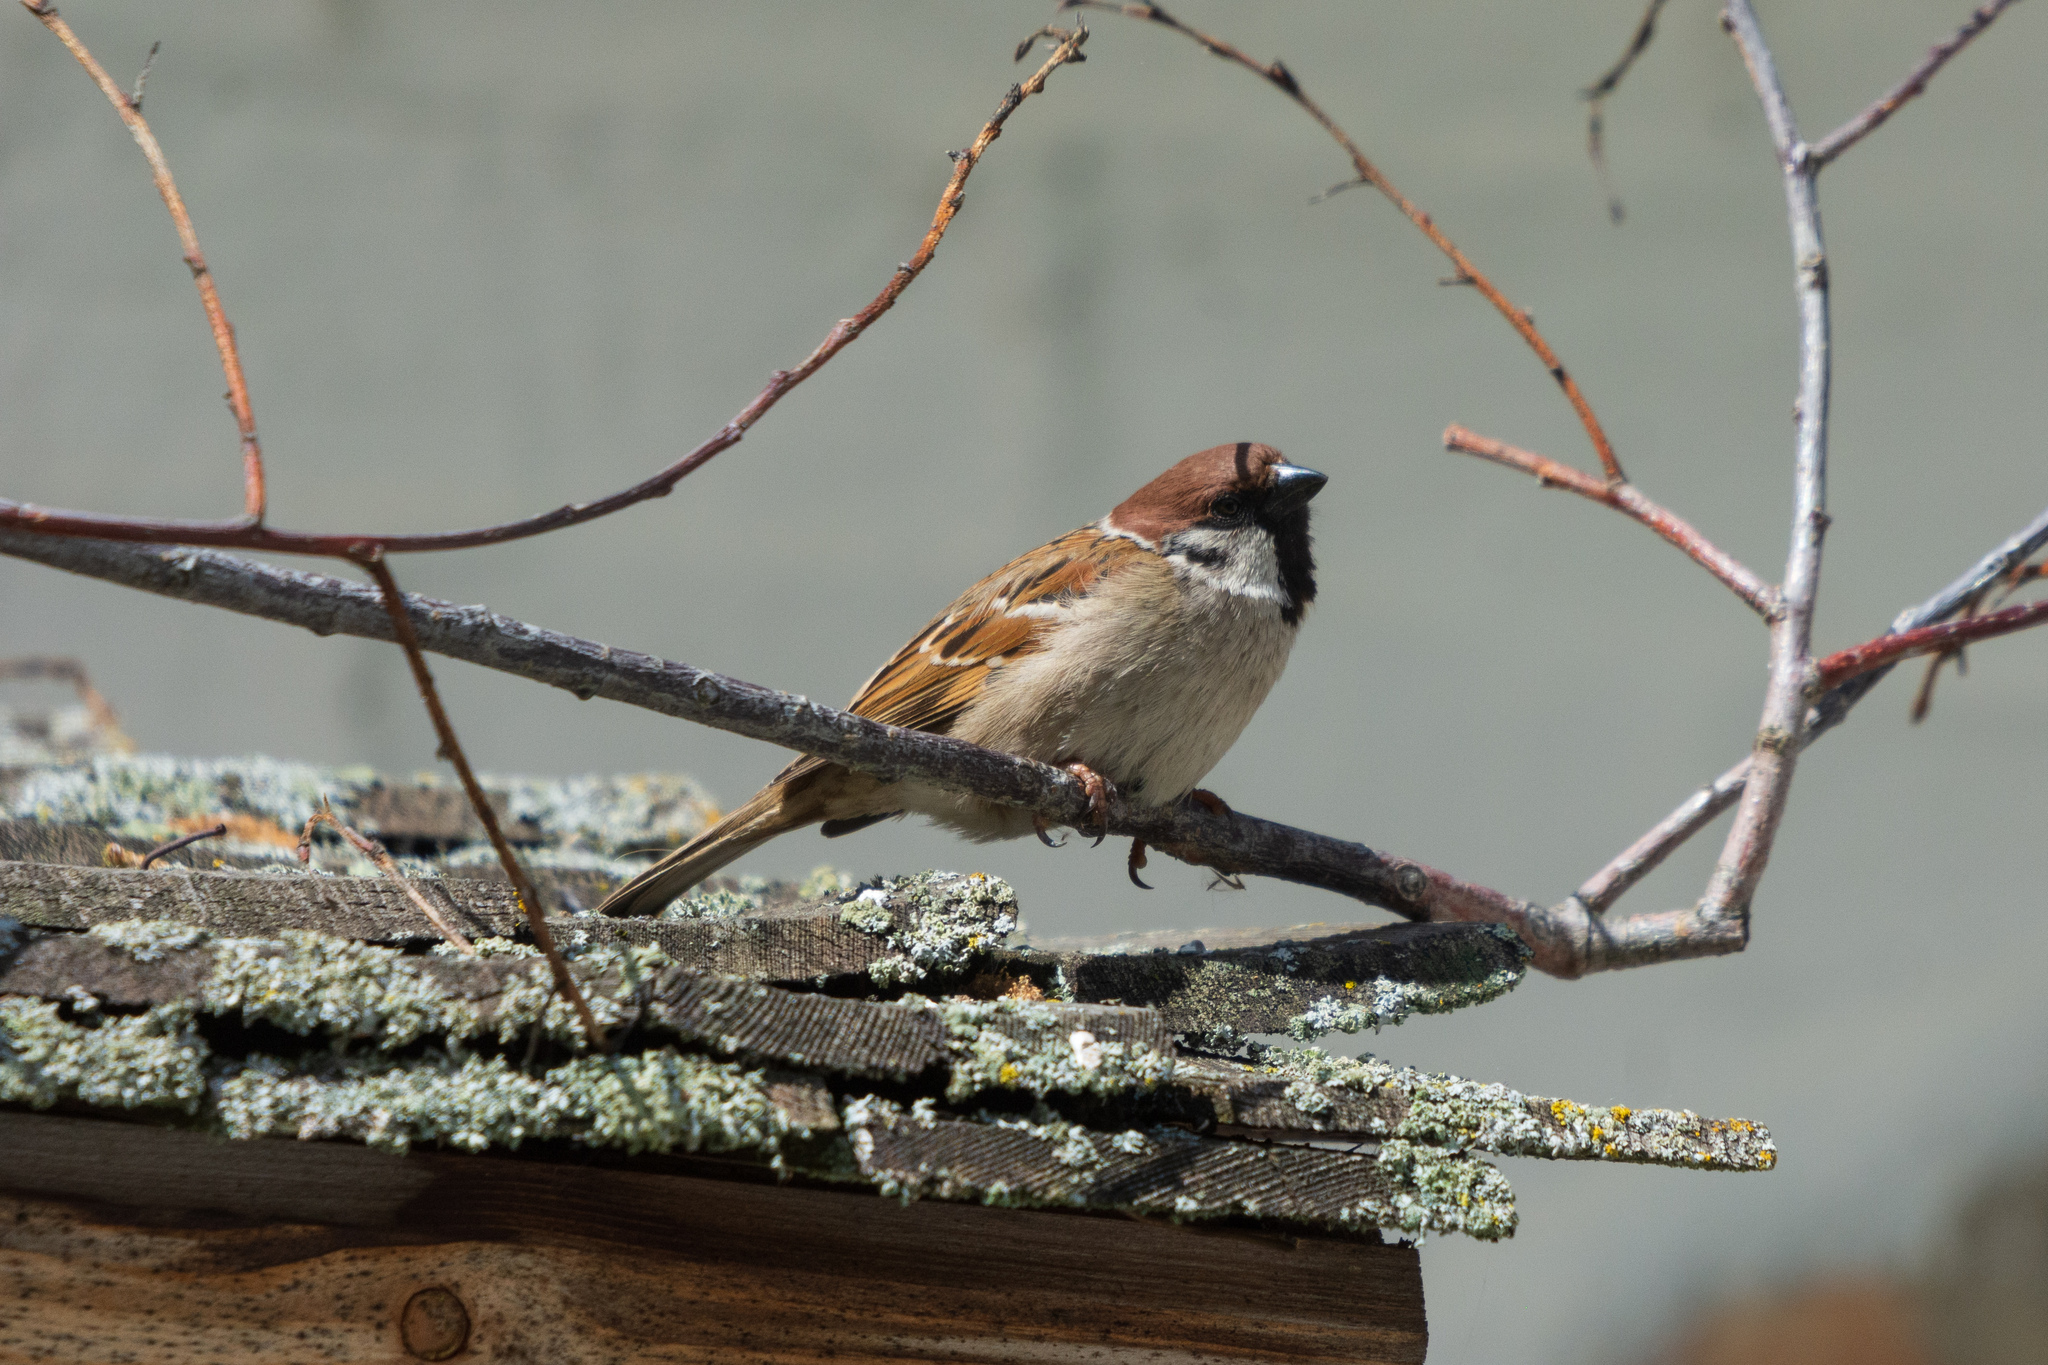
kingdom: Animalia
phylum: Chordata
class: Aves
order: Passeriformes
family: Passeridae
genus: Passer
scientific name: Passer montanus
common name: Eurasian tree sparrow
